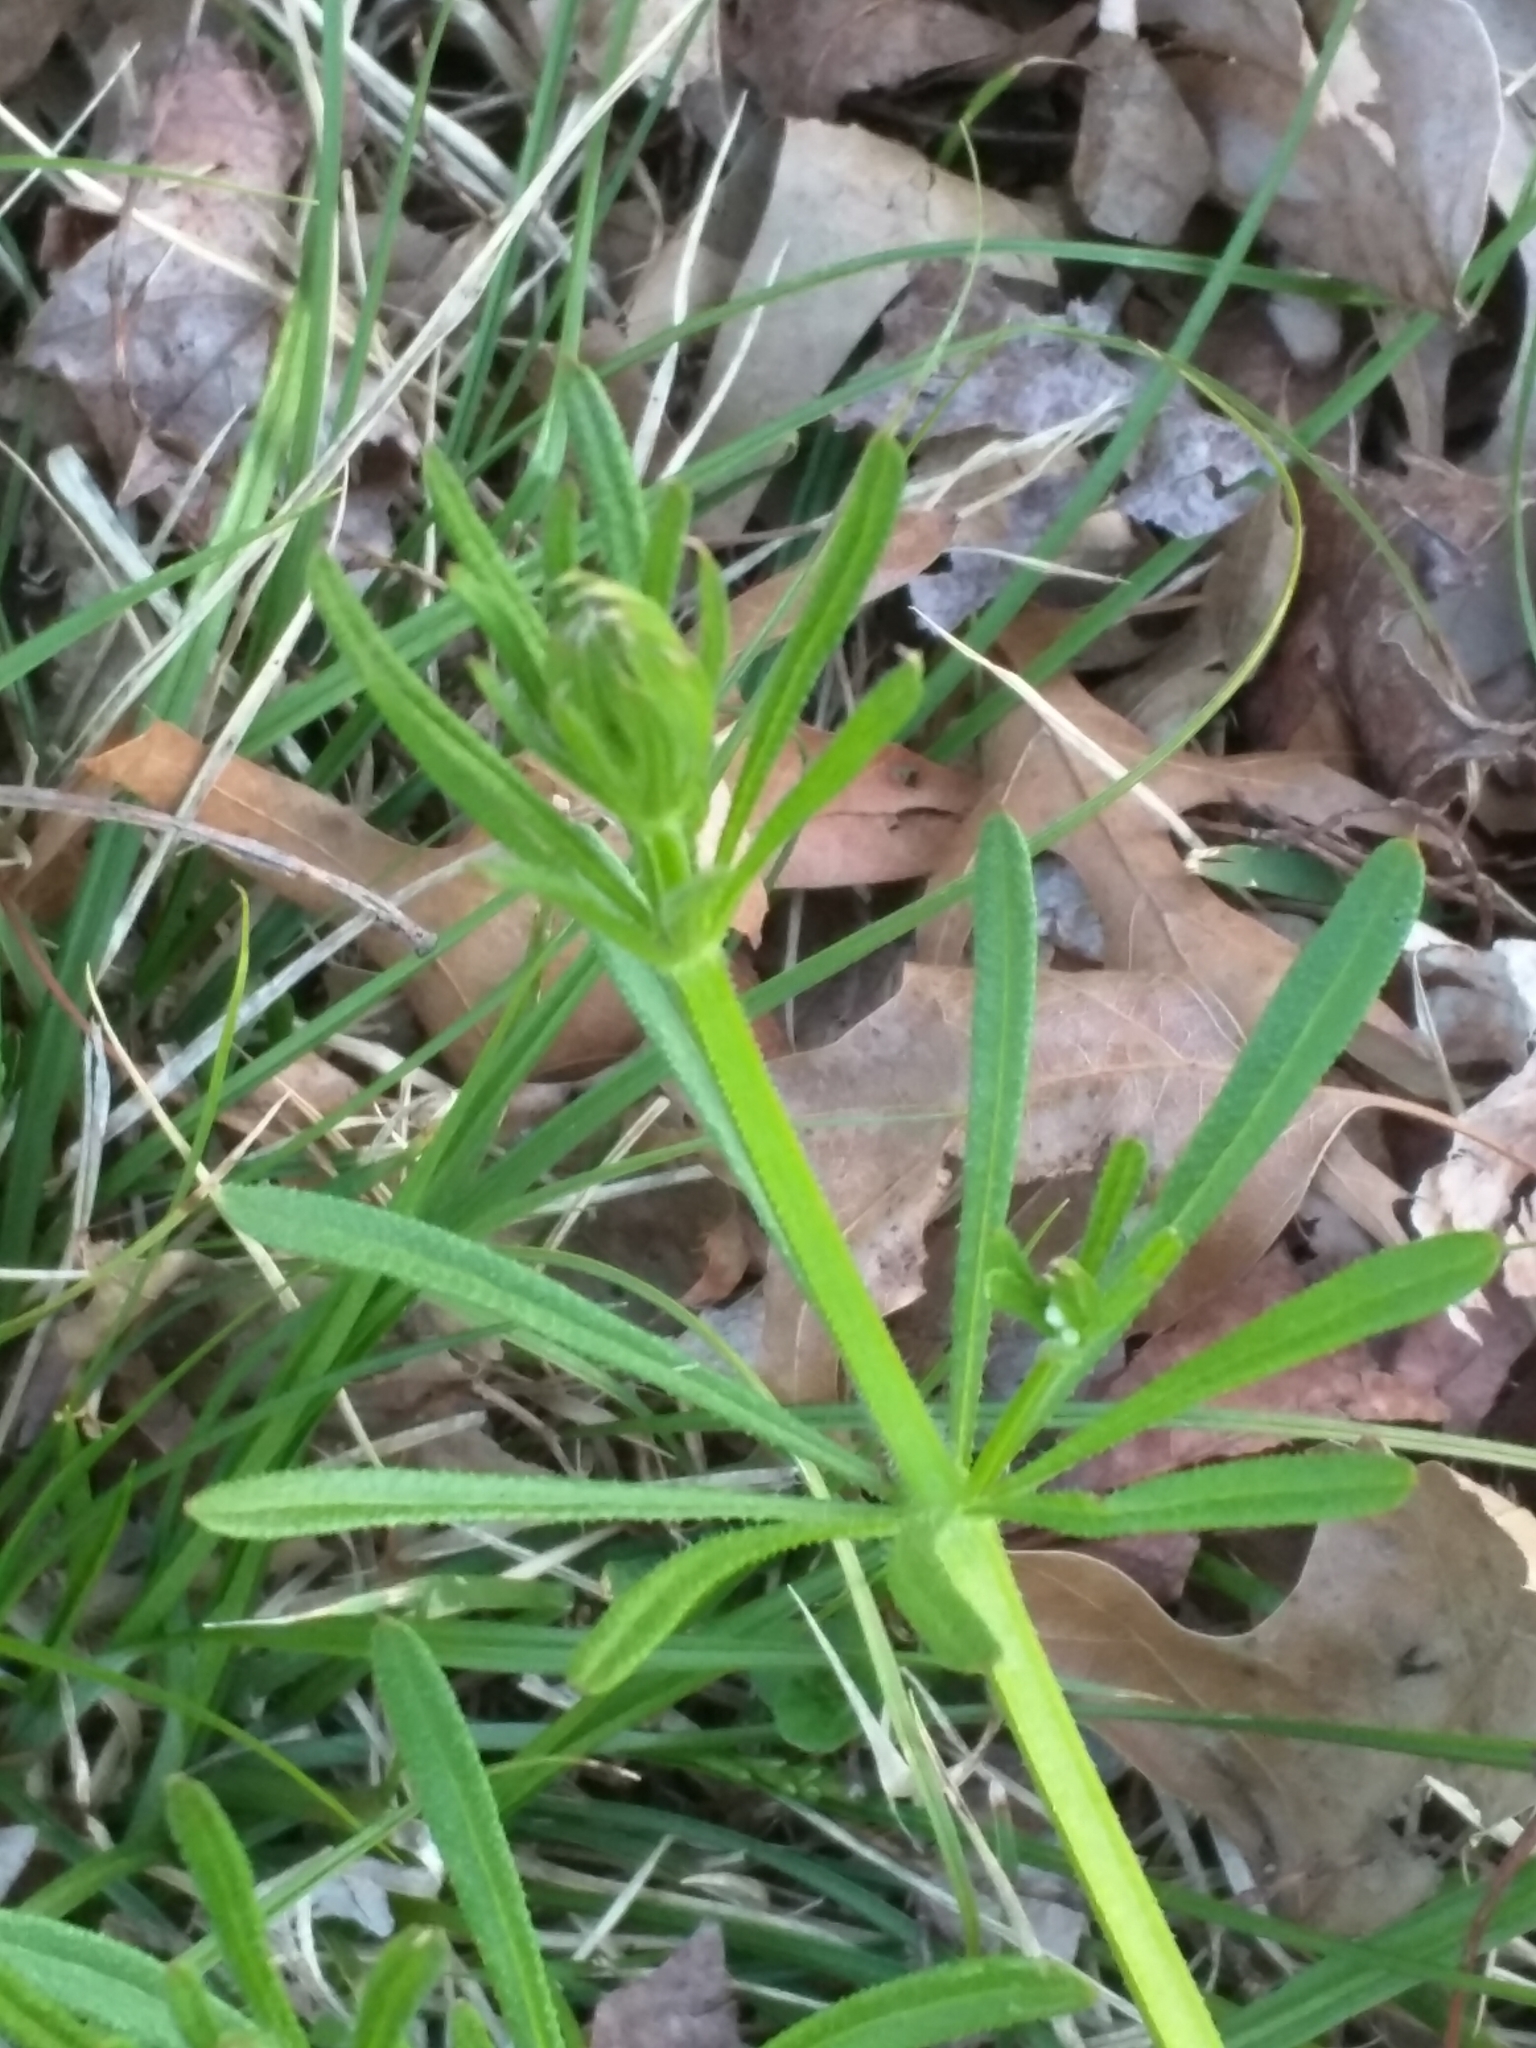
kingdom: Plantae
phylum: Tracheophyta
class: Magnoliopsida
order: Gentianales
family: Rubiaceae
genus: Galium
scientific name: Galium aparine
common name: Cleavers
